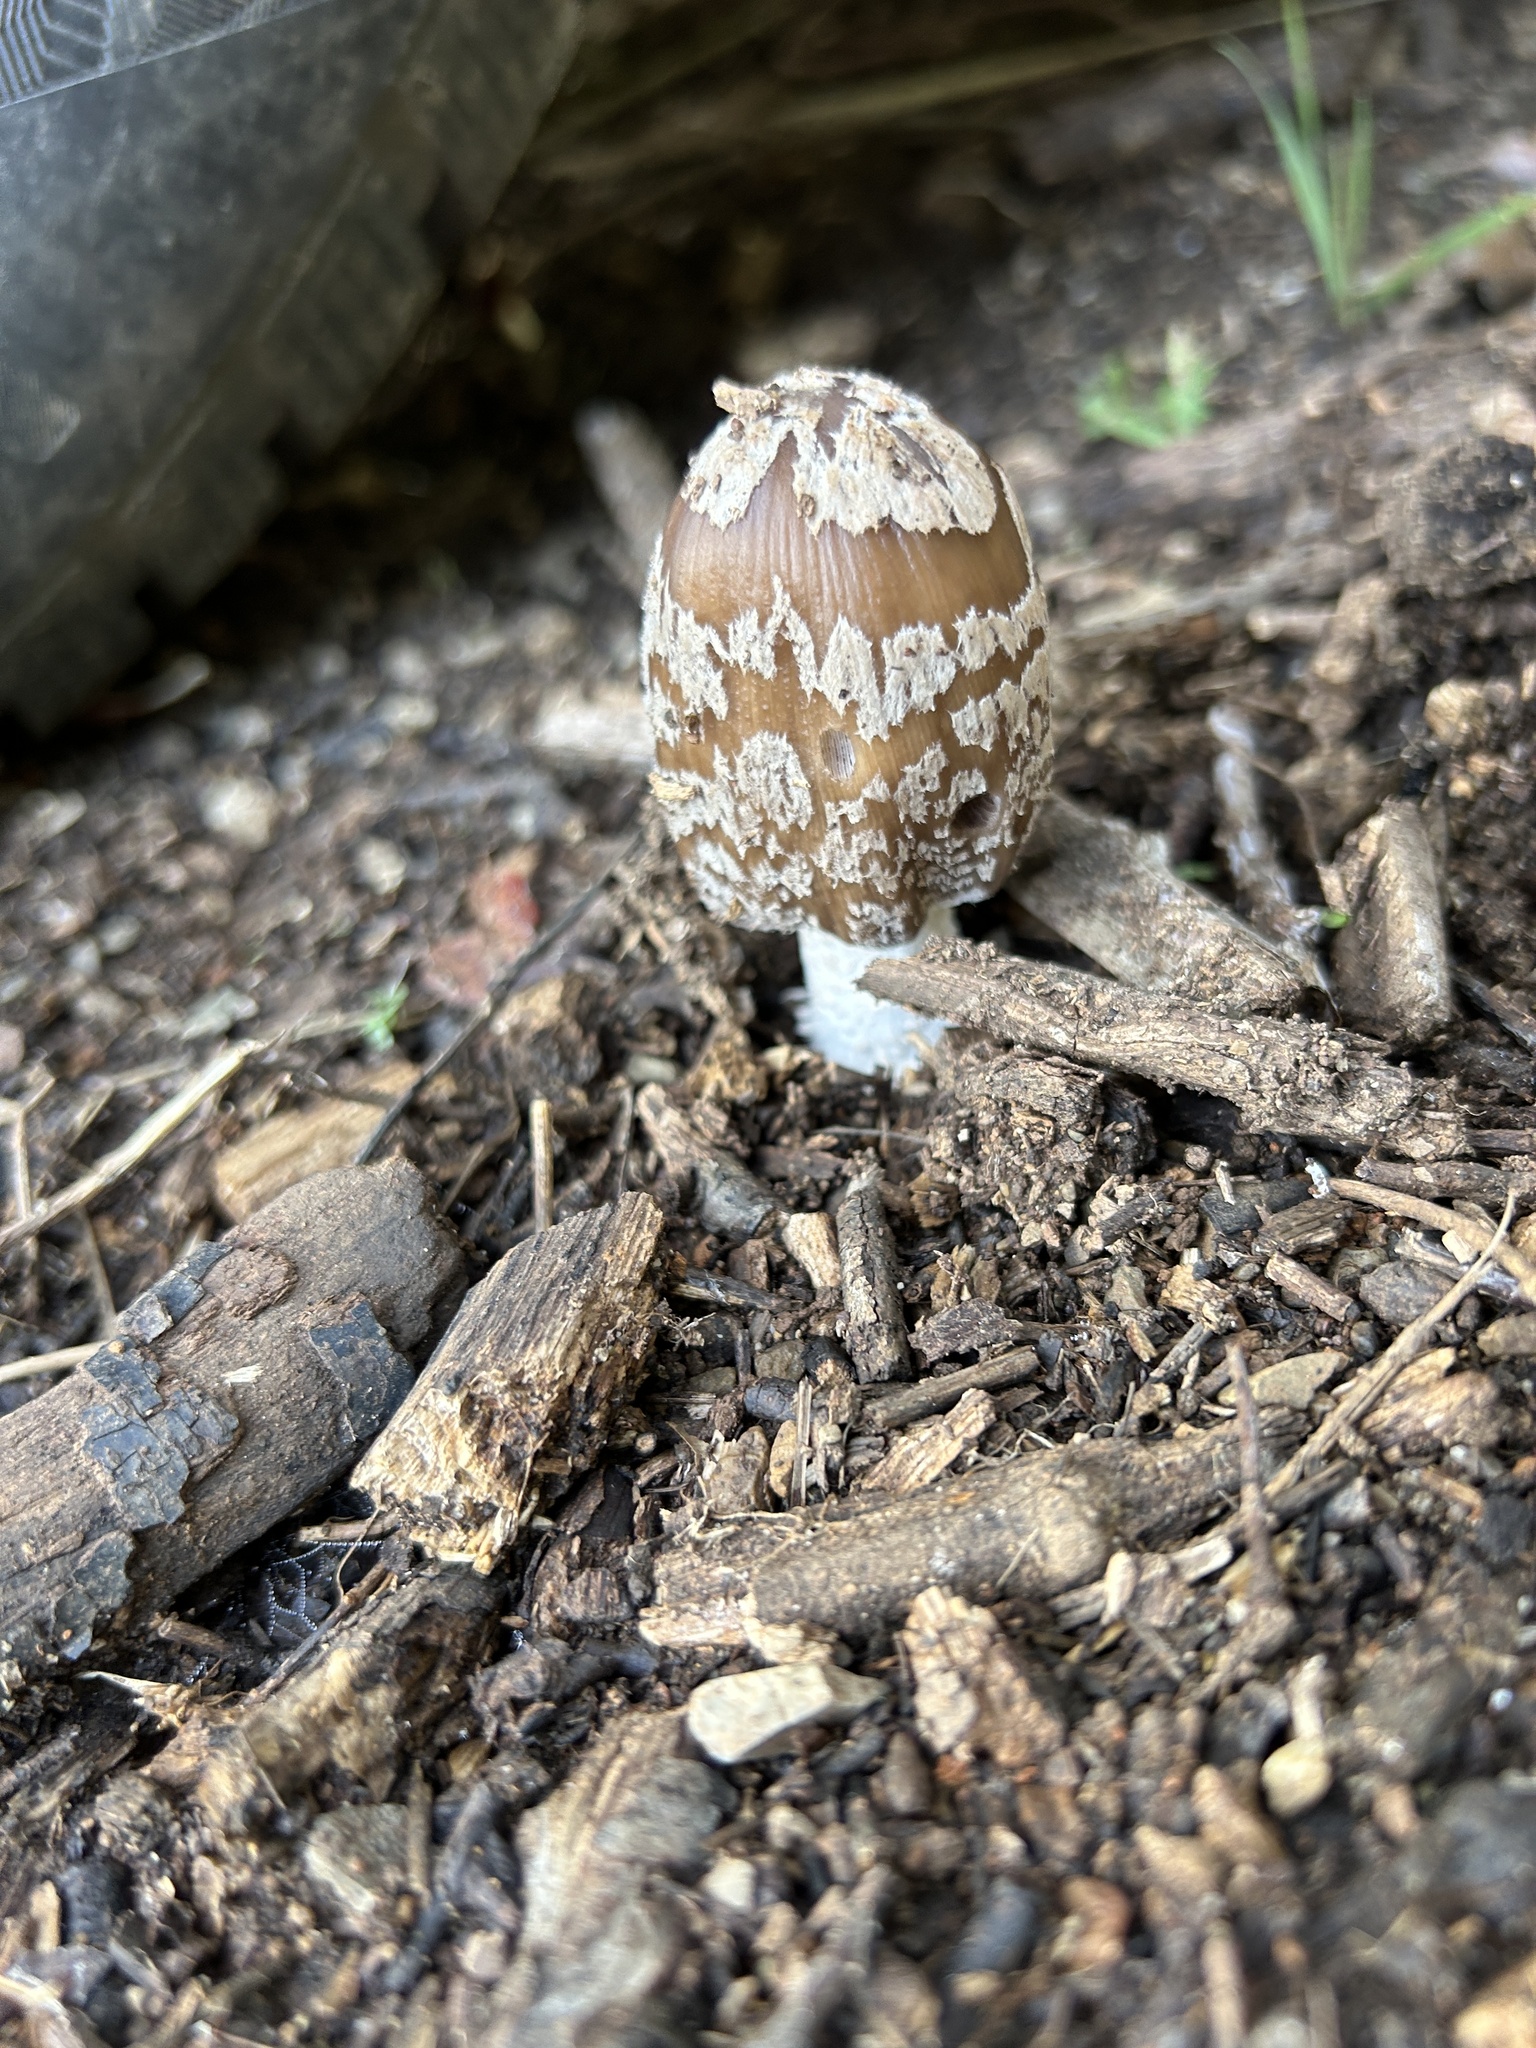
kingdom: Fungi
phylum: Basidiomycota
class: Agaricomycetes
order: Agaricales
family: Psathyrellaceae
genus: Coprinopsis
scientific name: Coprinopsis picacea
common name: Magpie inkcap
